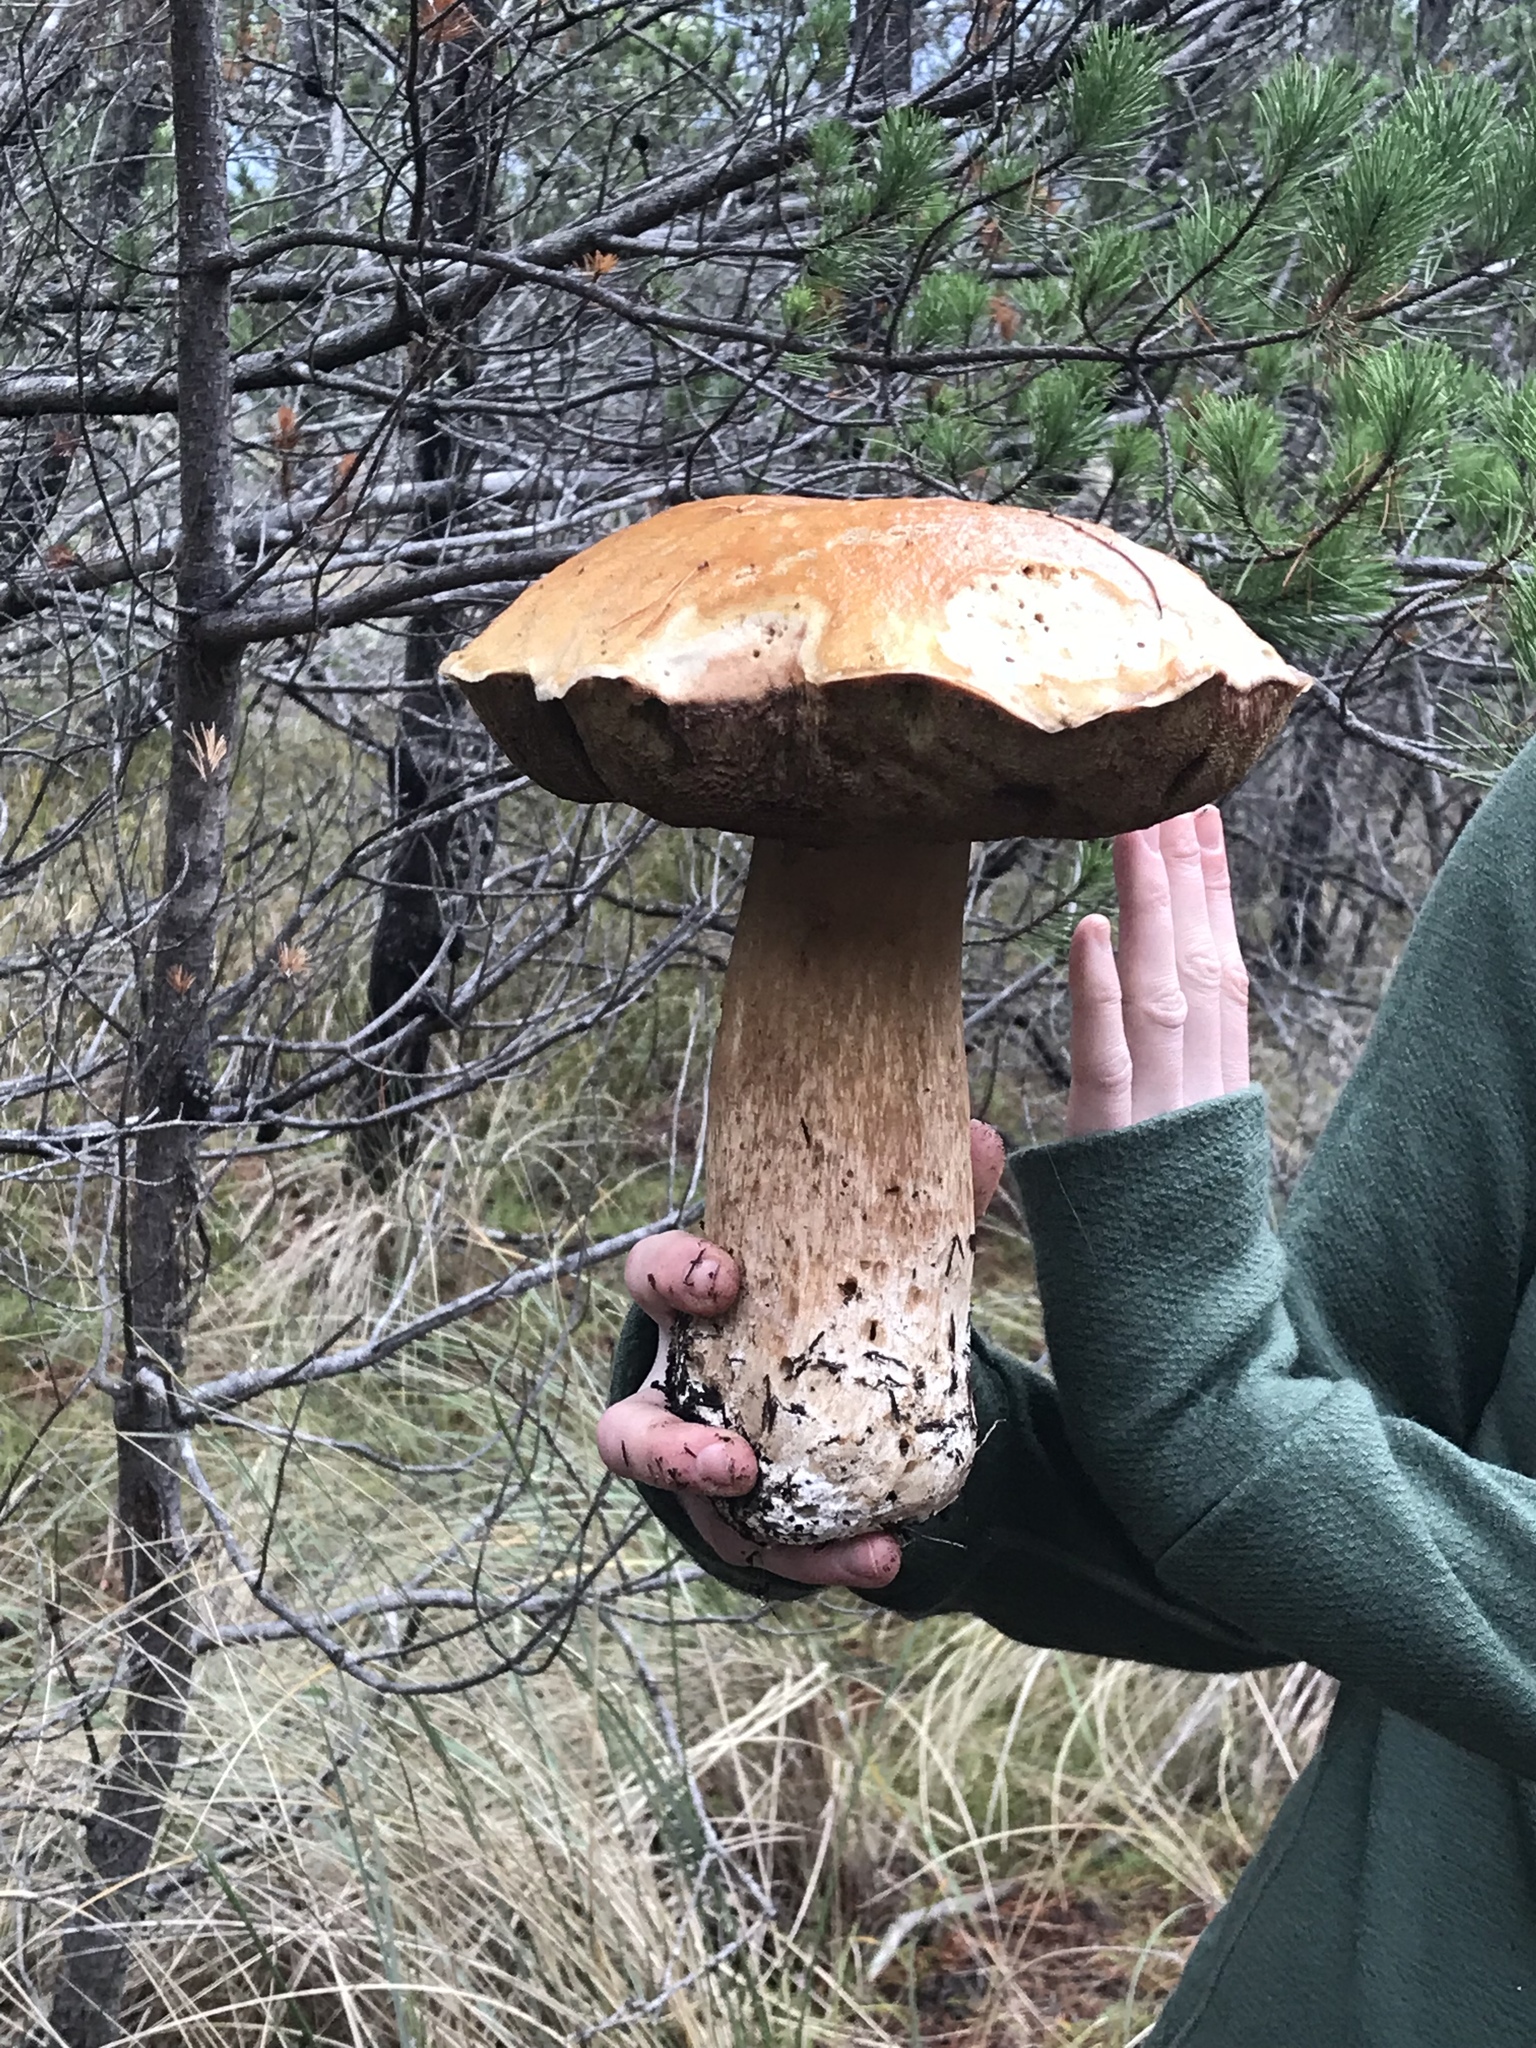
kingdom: Fungi
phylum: Basidiomycota
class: Agaricomycetes
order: Boletales
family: Boletaceae
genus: Boletus
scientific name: Boletus edulis
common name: Cep
